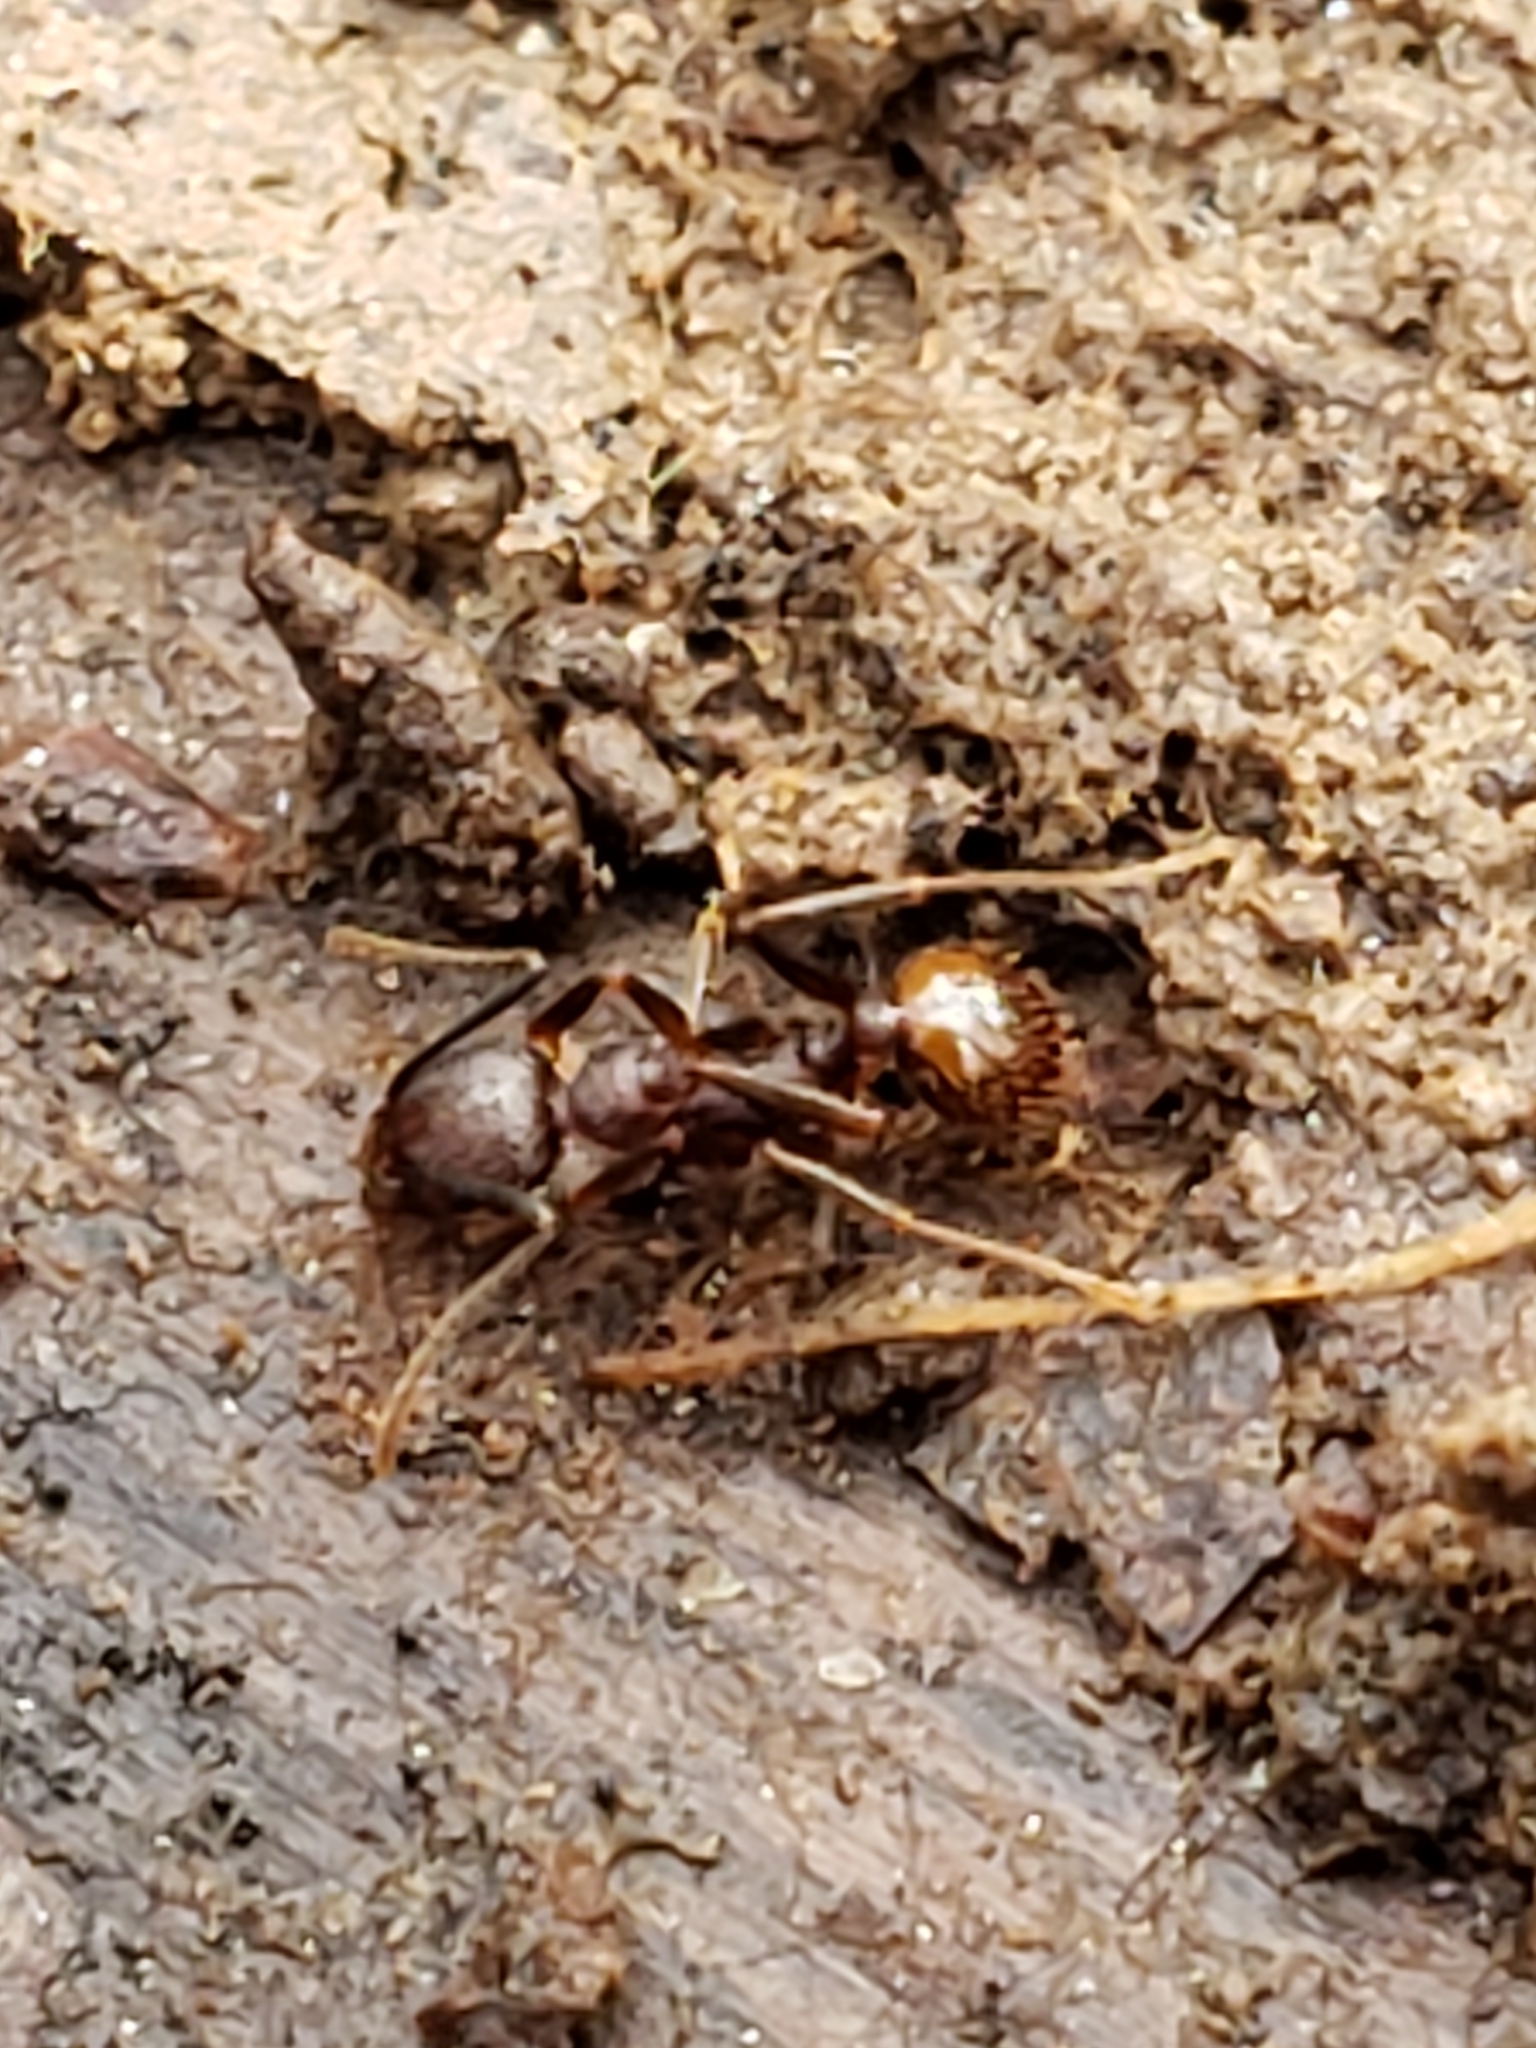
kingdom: Animalia
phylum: Arthropoda
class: Insecta
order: Hymenoptera
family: Formicidae
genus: Aphaenogaster
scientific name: Aphaenogaster fulva
